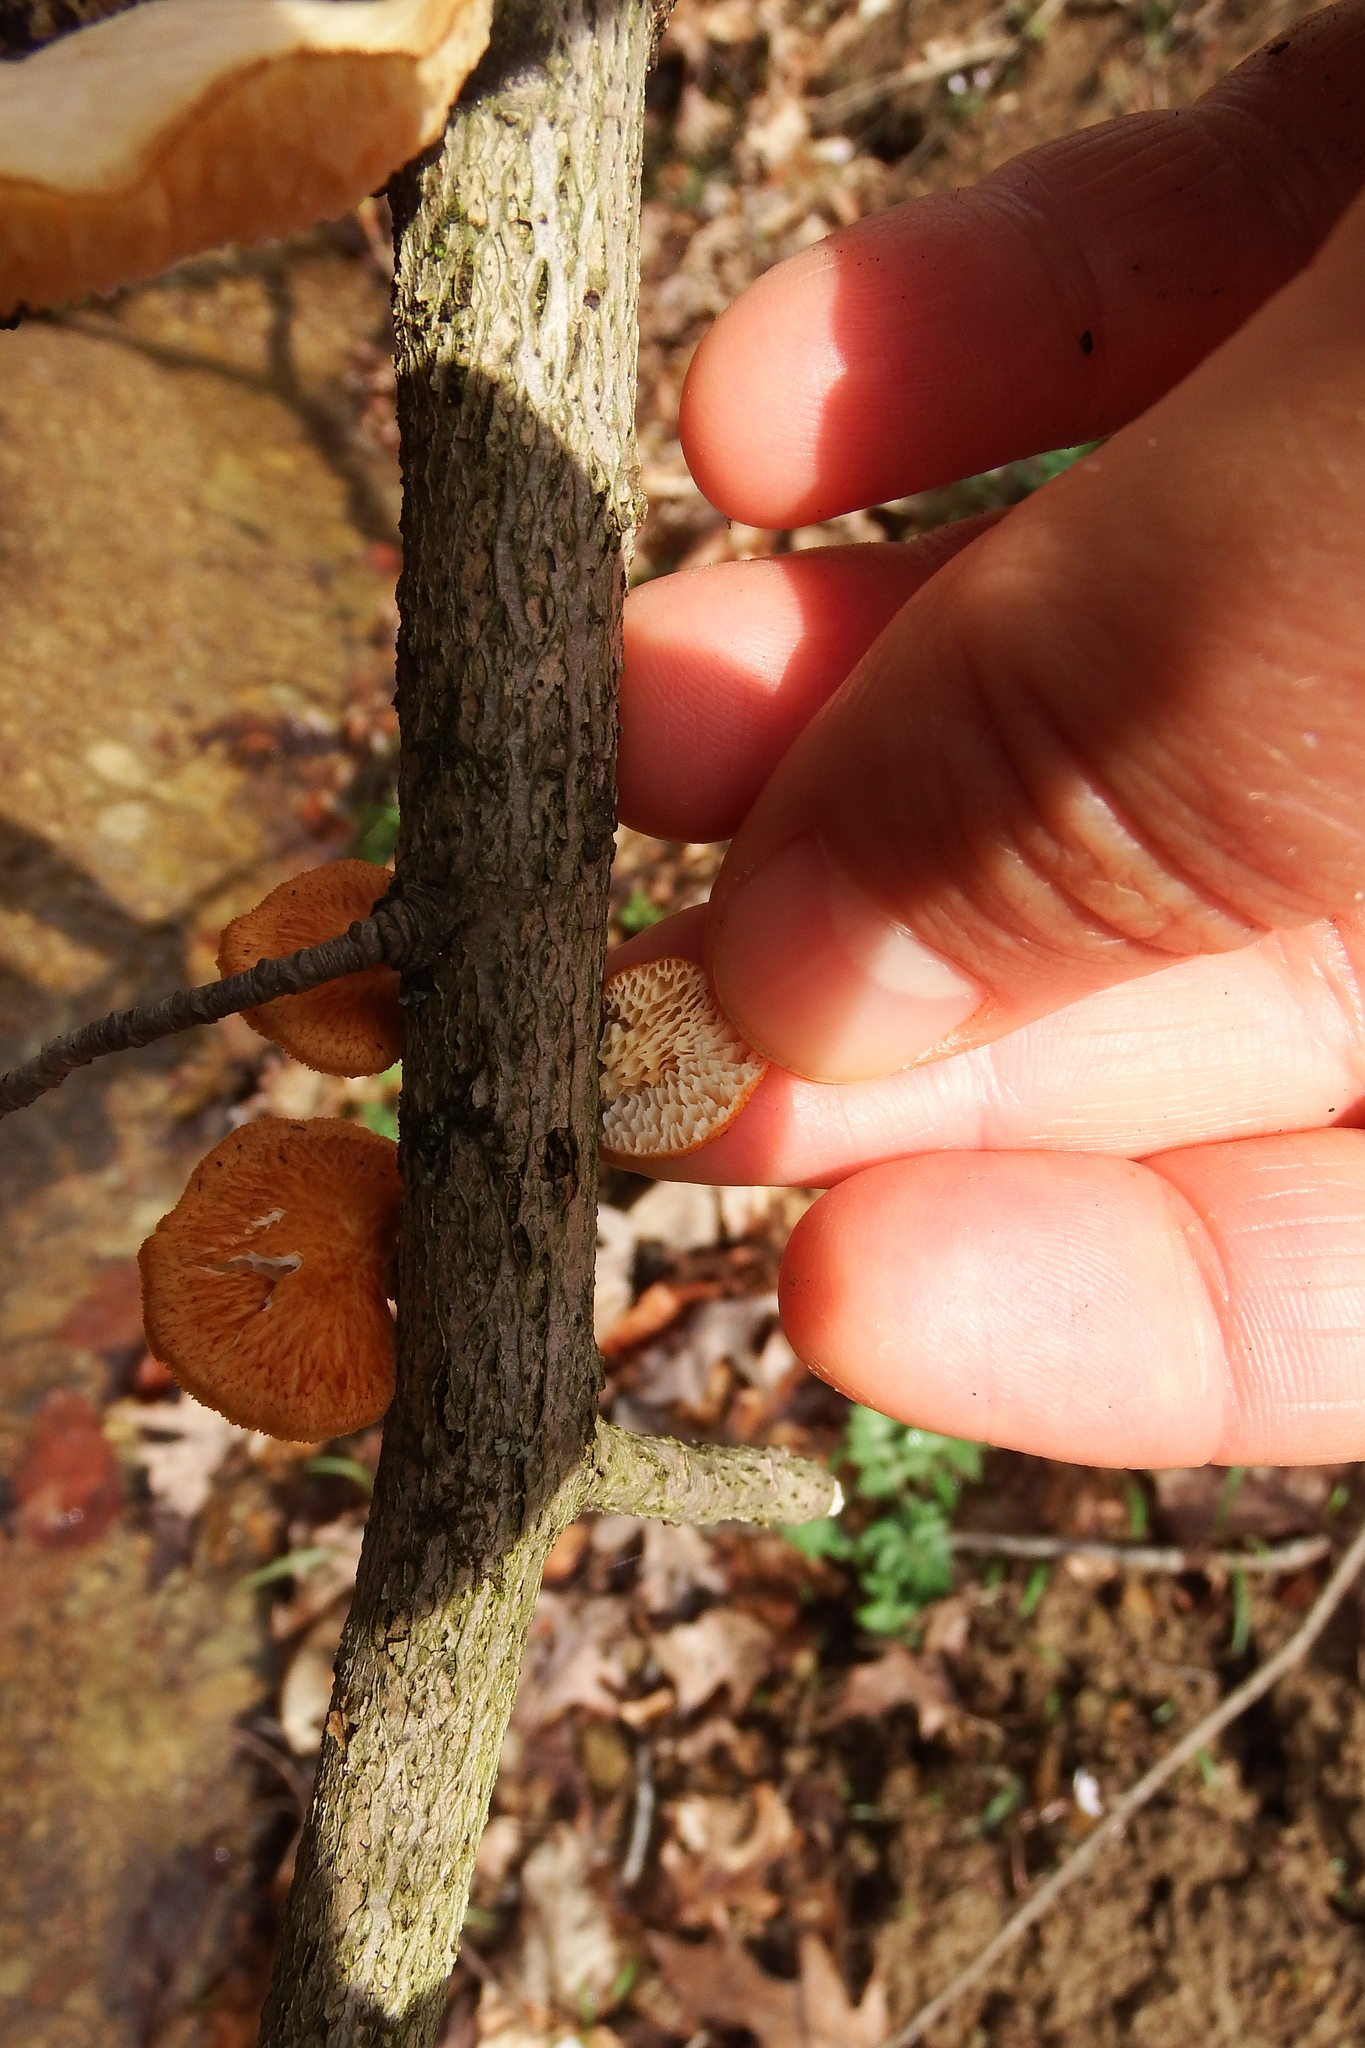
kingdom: Fungi
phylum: Basidiomycota
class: Agaricomycetes
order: Polyporales
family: Polyporaceae
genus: Neofavolus
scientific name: Neofavolus alveolaris
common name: Hexagonal-pored polypore
